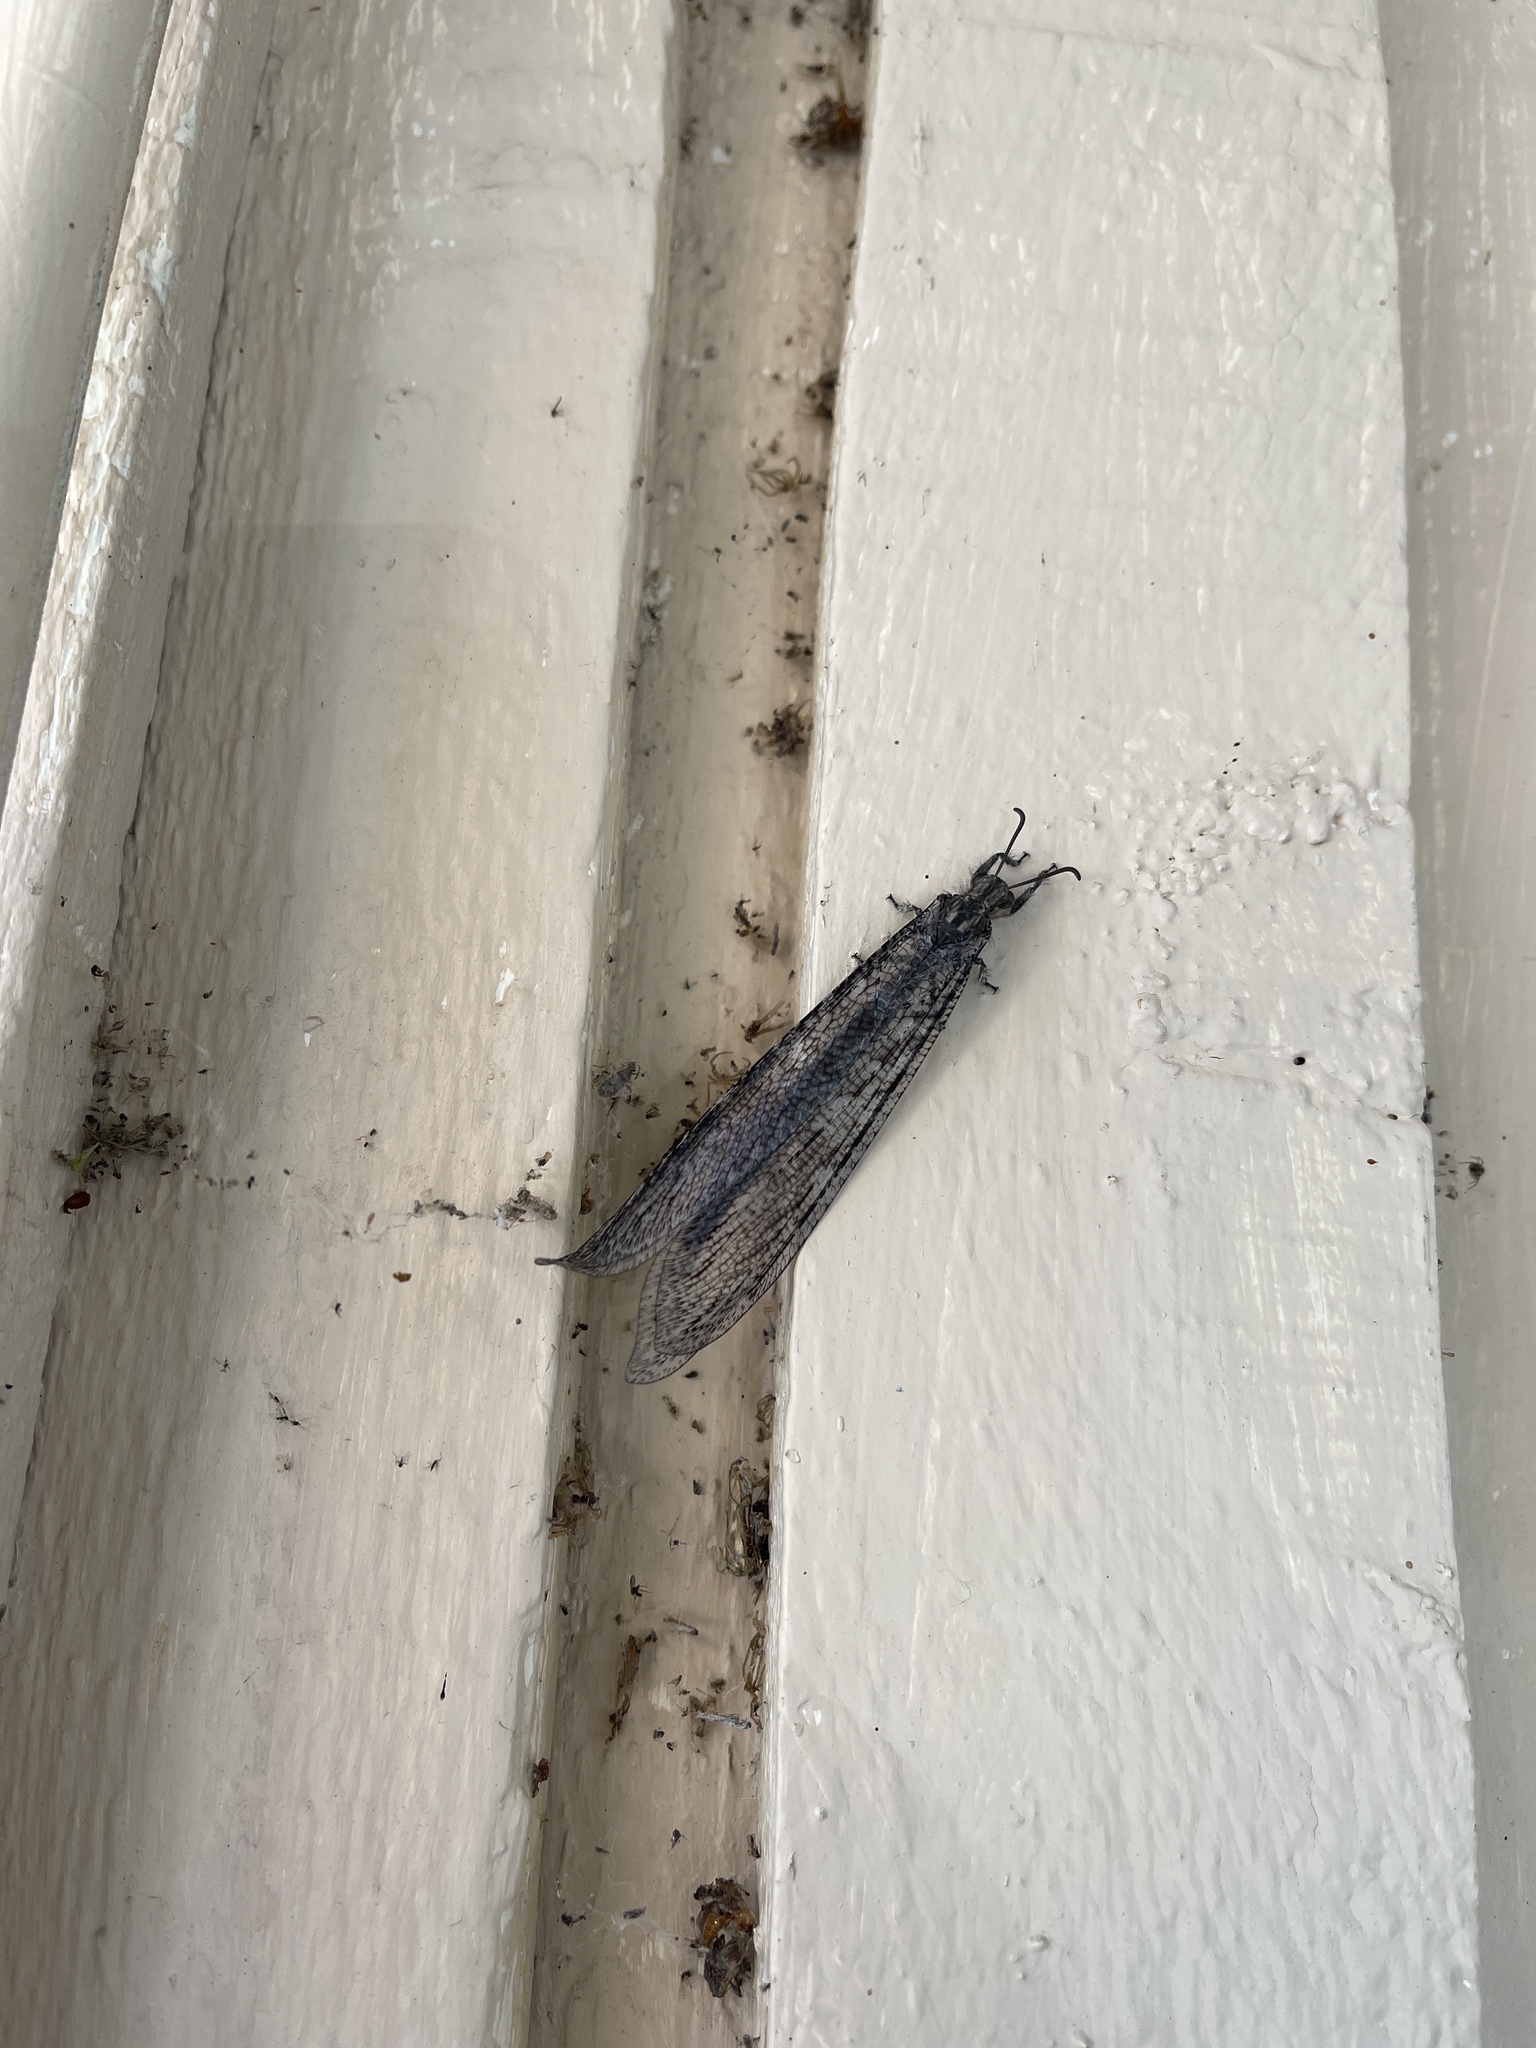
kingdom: Animalia
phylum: Arthropoda
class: Insecta
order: Neuroptera
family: Myrmeleontidae
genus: Vella
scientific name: Vella fallax
